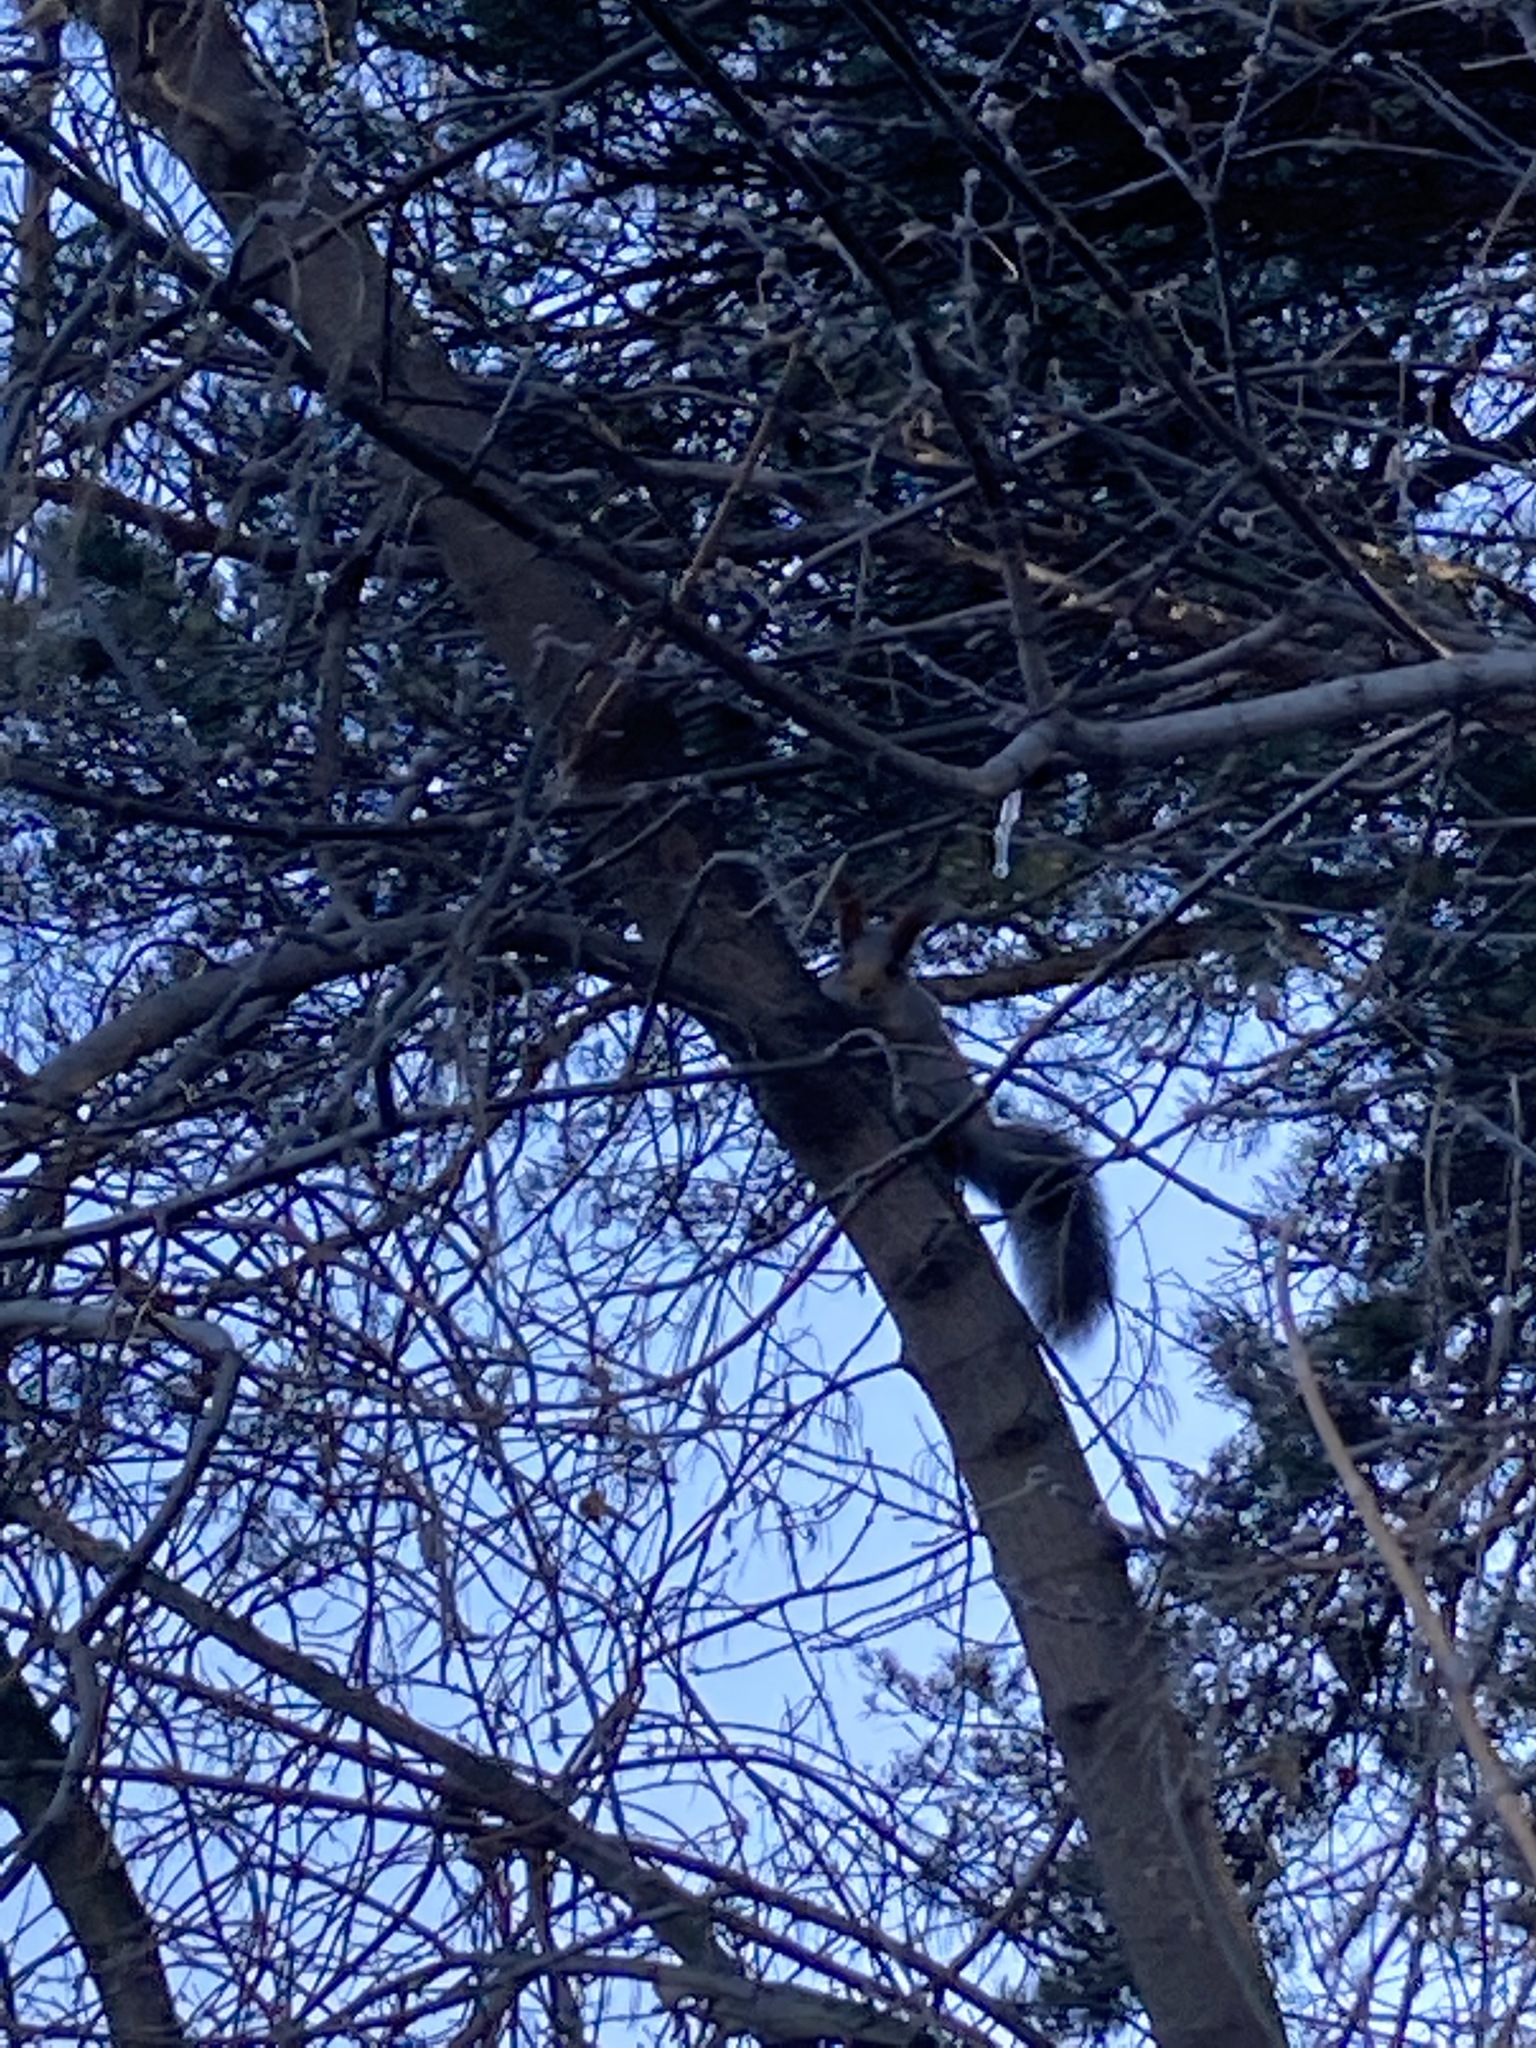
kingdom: Animalia
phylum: Chordata
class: Mammalia
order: Rodentia
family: Sciuridae
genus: Sciurus
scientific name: Sciurus vulgaris
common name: Eurasian red squirrel
